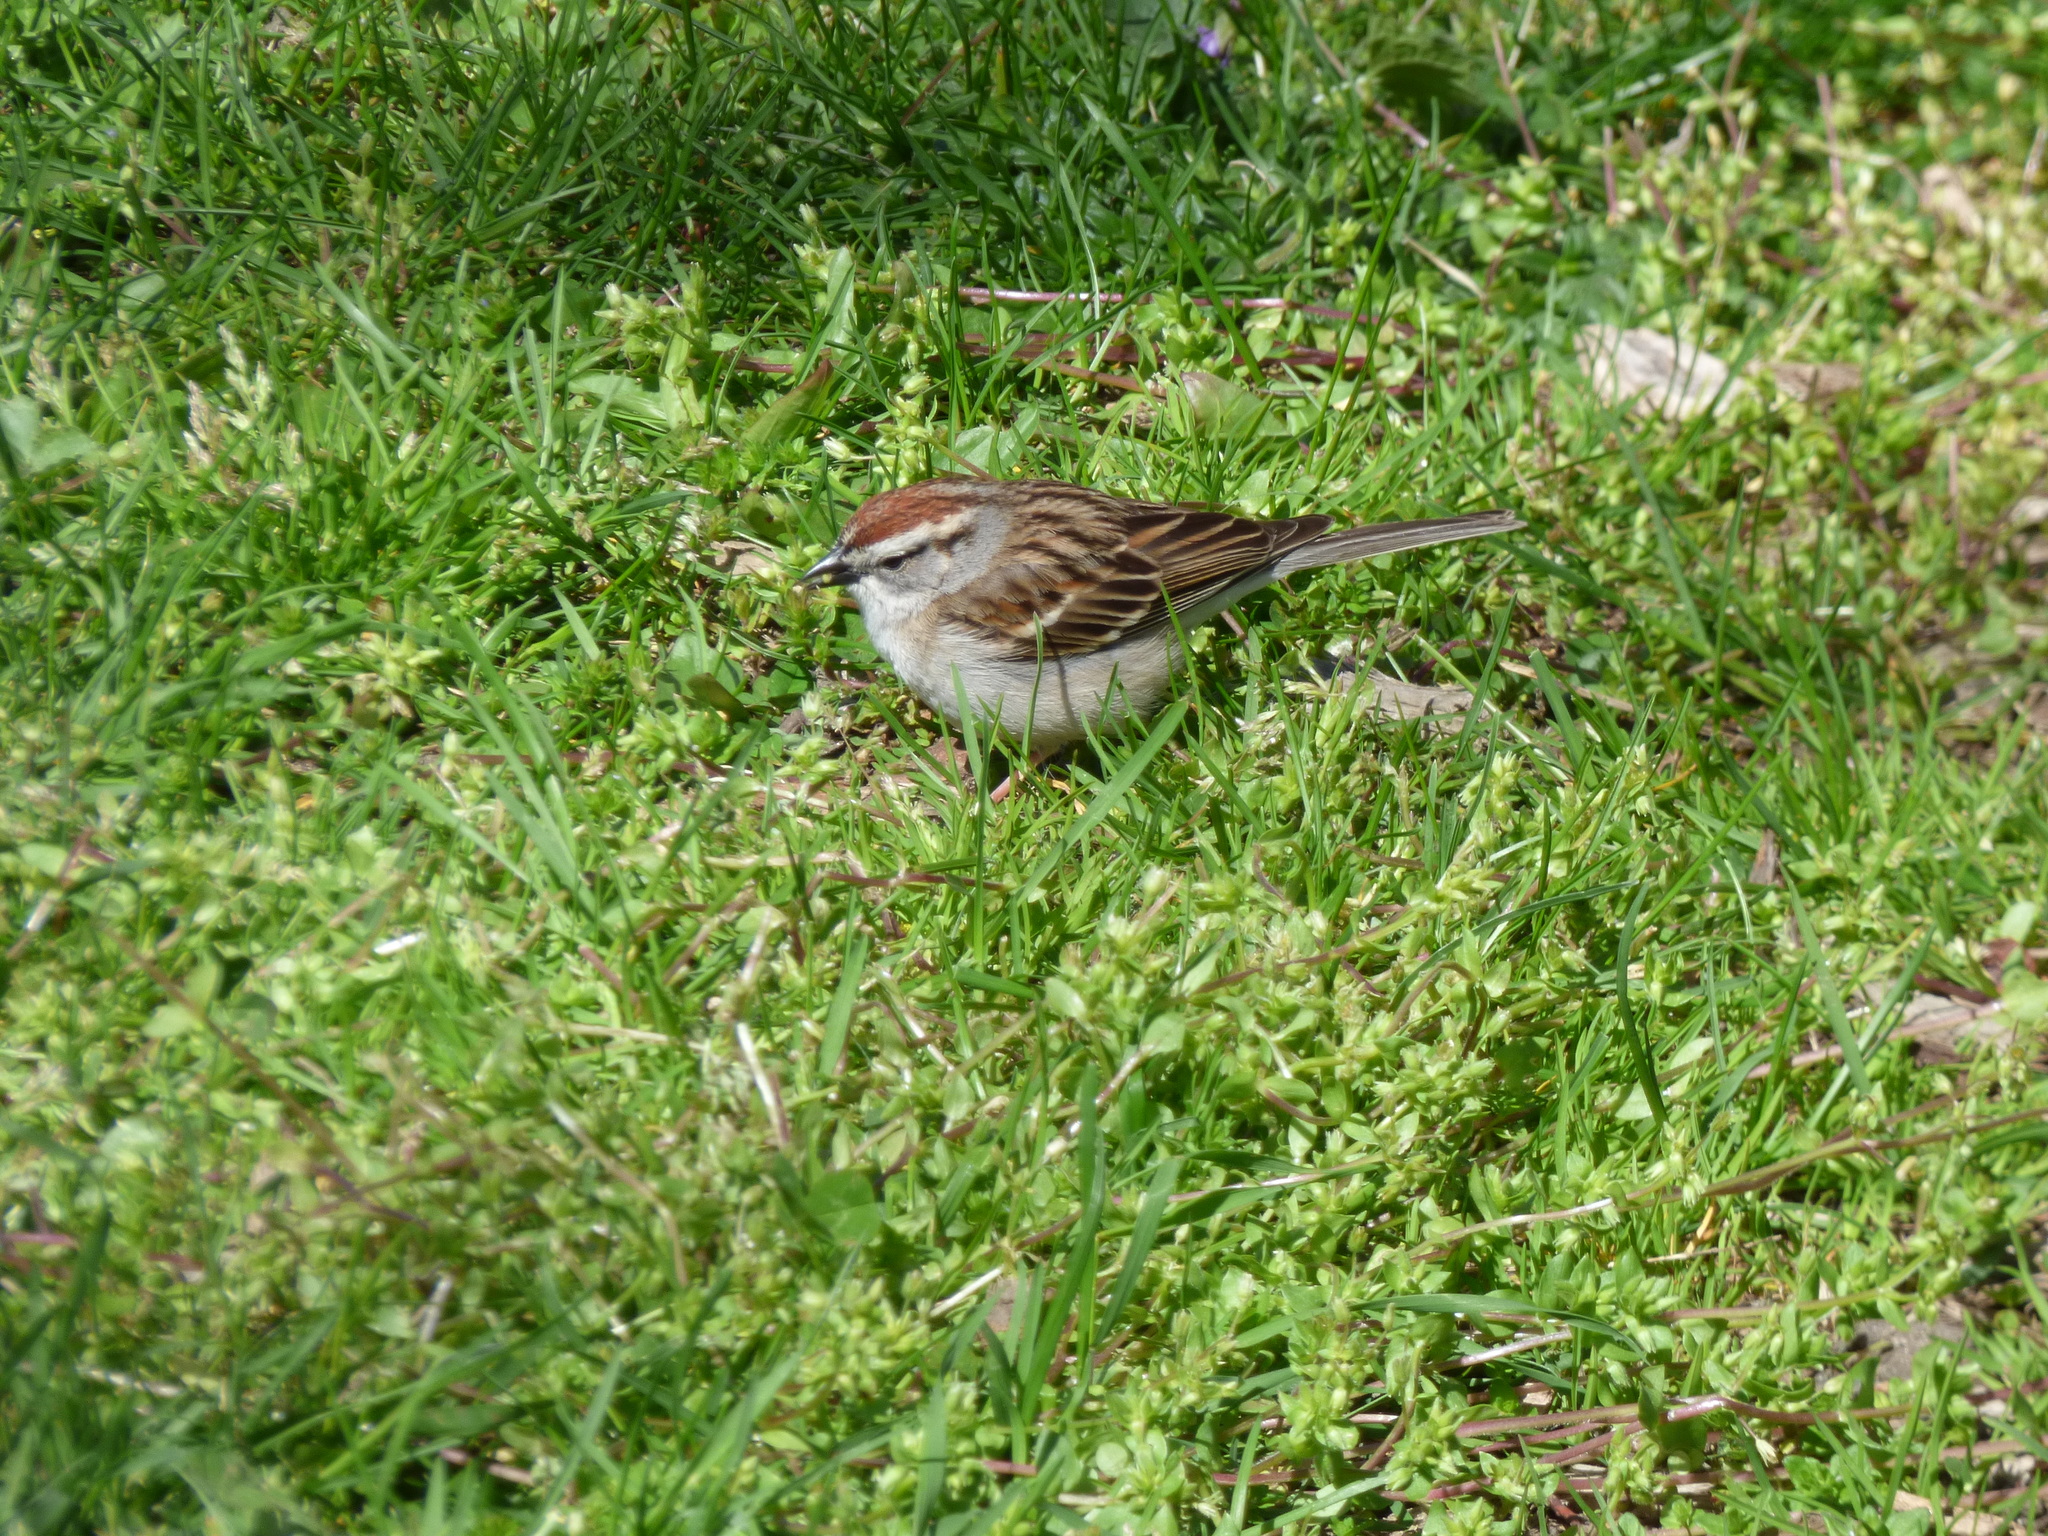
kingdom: Animalia
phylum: Chordata
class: Aves
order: Passeriformes
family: Passerellidae
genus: Spizella
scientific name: Spizella passerina
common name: Chipping sparrow
